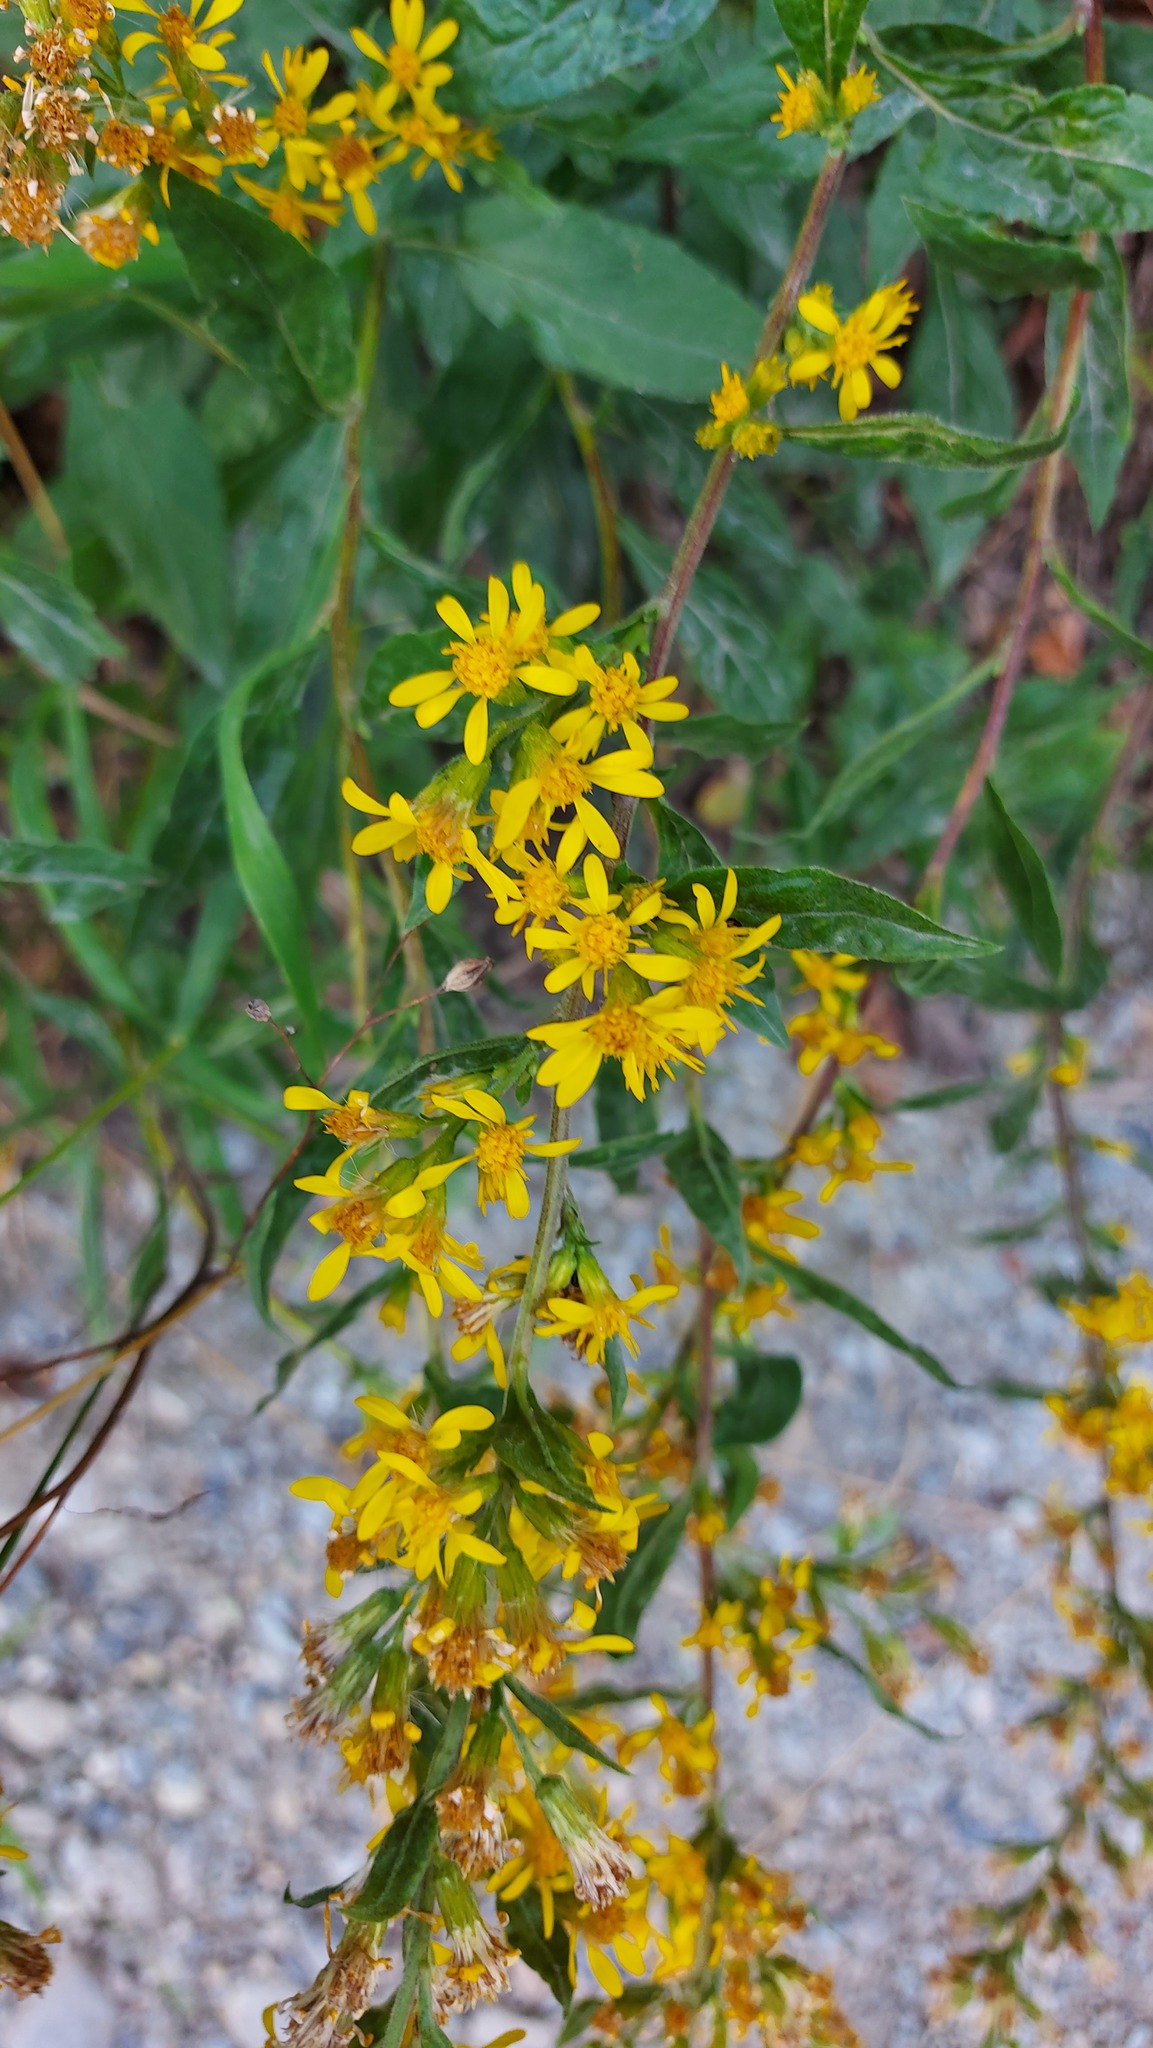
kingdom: Plantae
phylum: Tracheophyta
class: Magnoliopsida
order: Asterales
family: Asteraceae
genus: Solidago
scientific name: Solidago virgaurea
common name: Goldenrod
